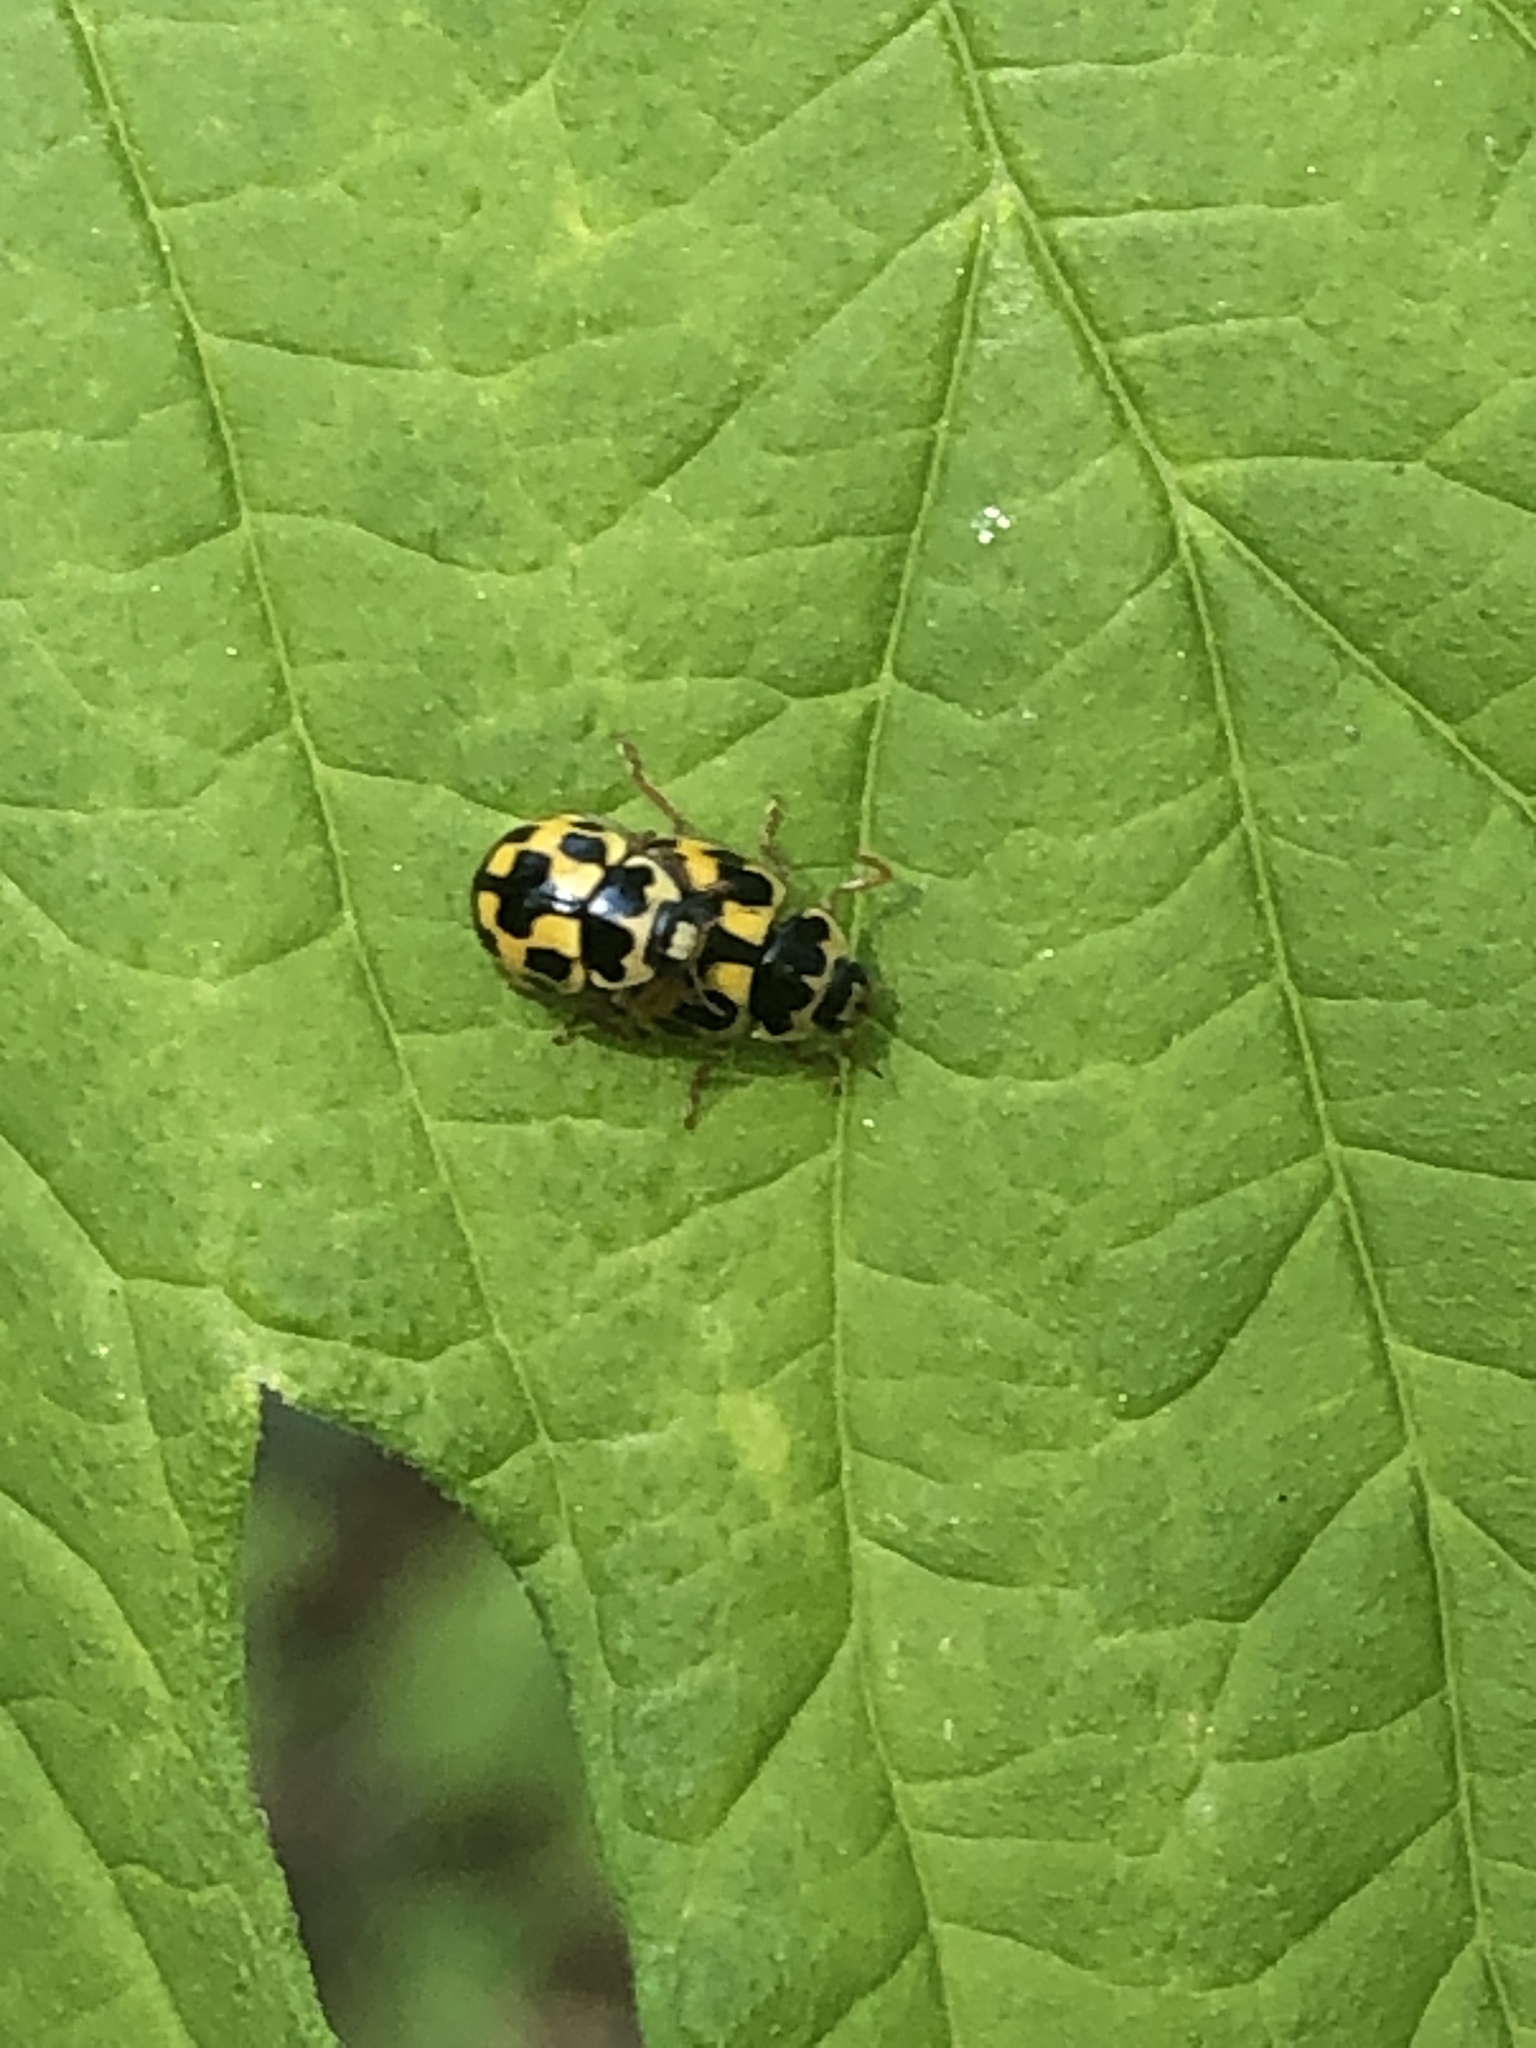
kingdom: Animalia
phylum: Arthropoda
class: Insecta
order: Coleoptera
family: Coccinellidae
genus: Propylaea
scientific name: Propylaea quatuordecimpunctata
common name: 14-spotted ladybird beetle
